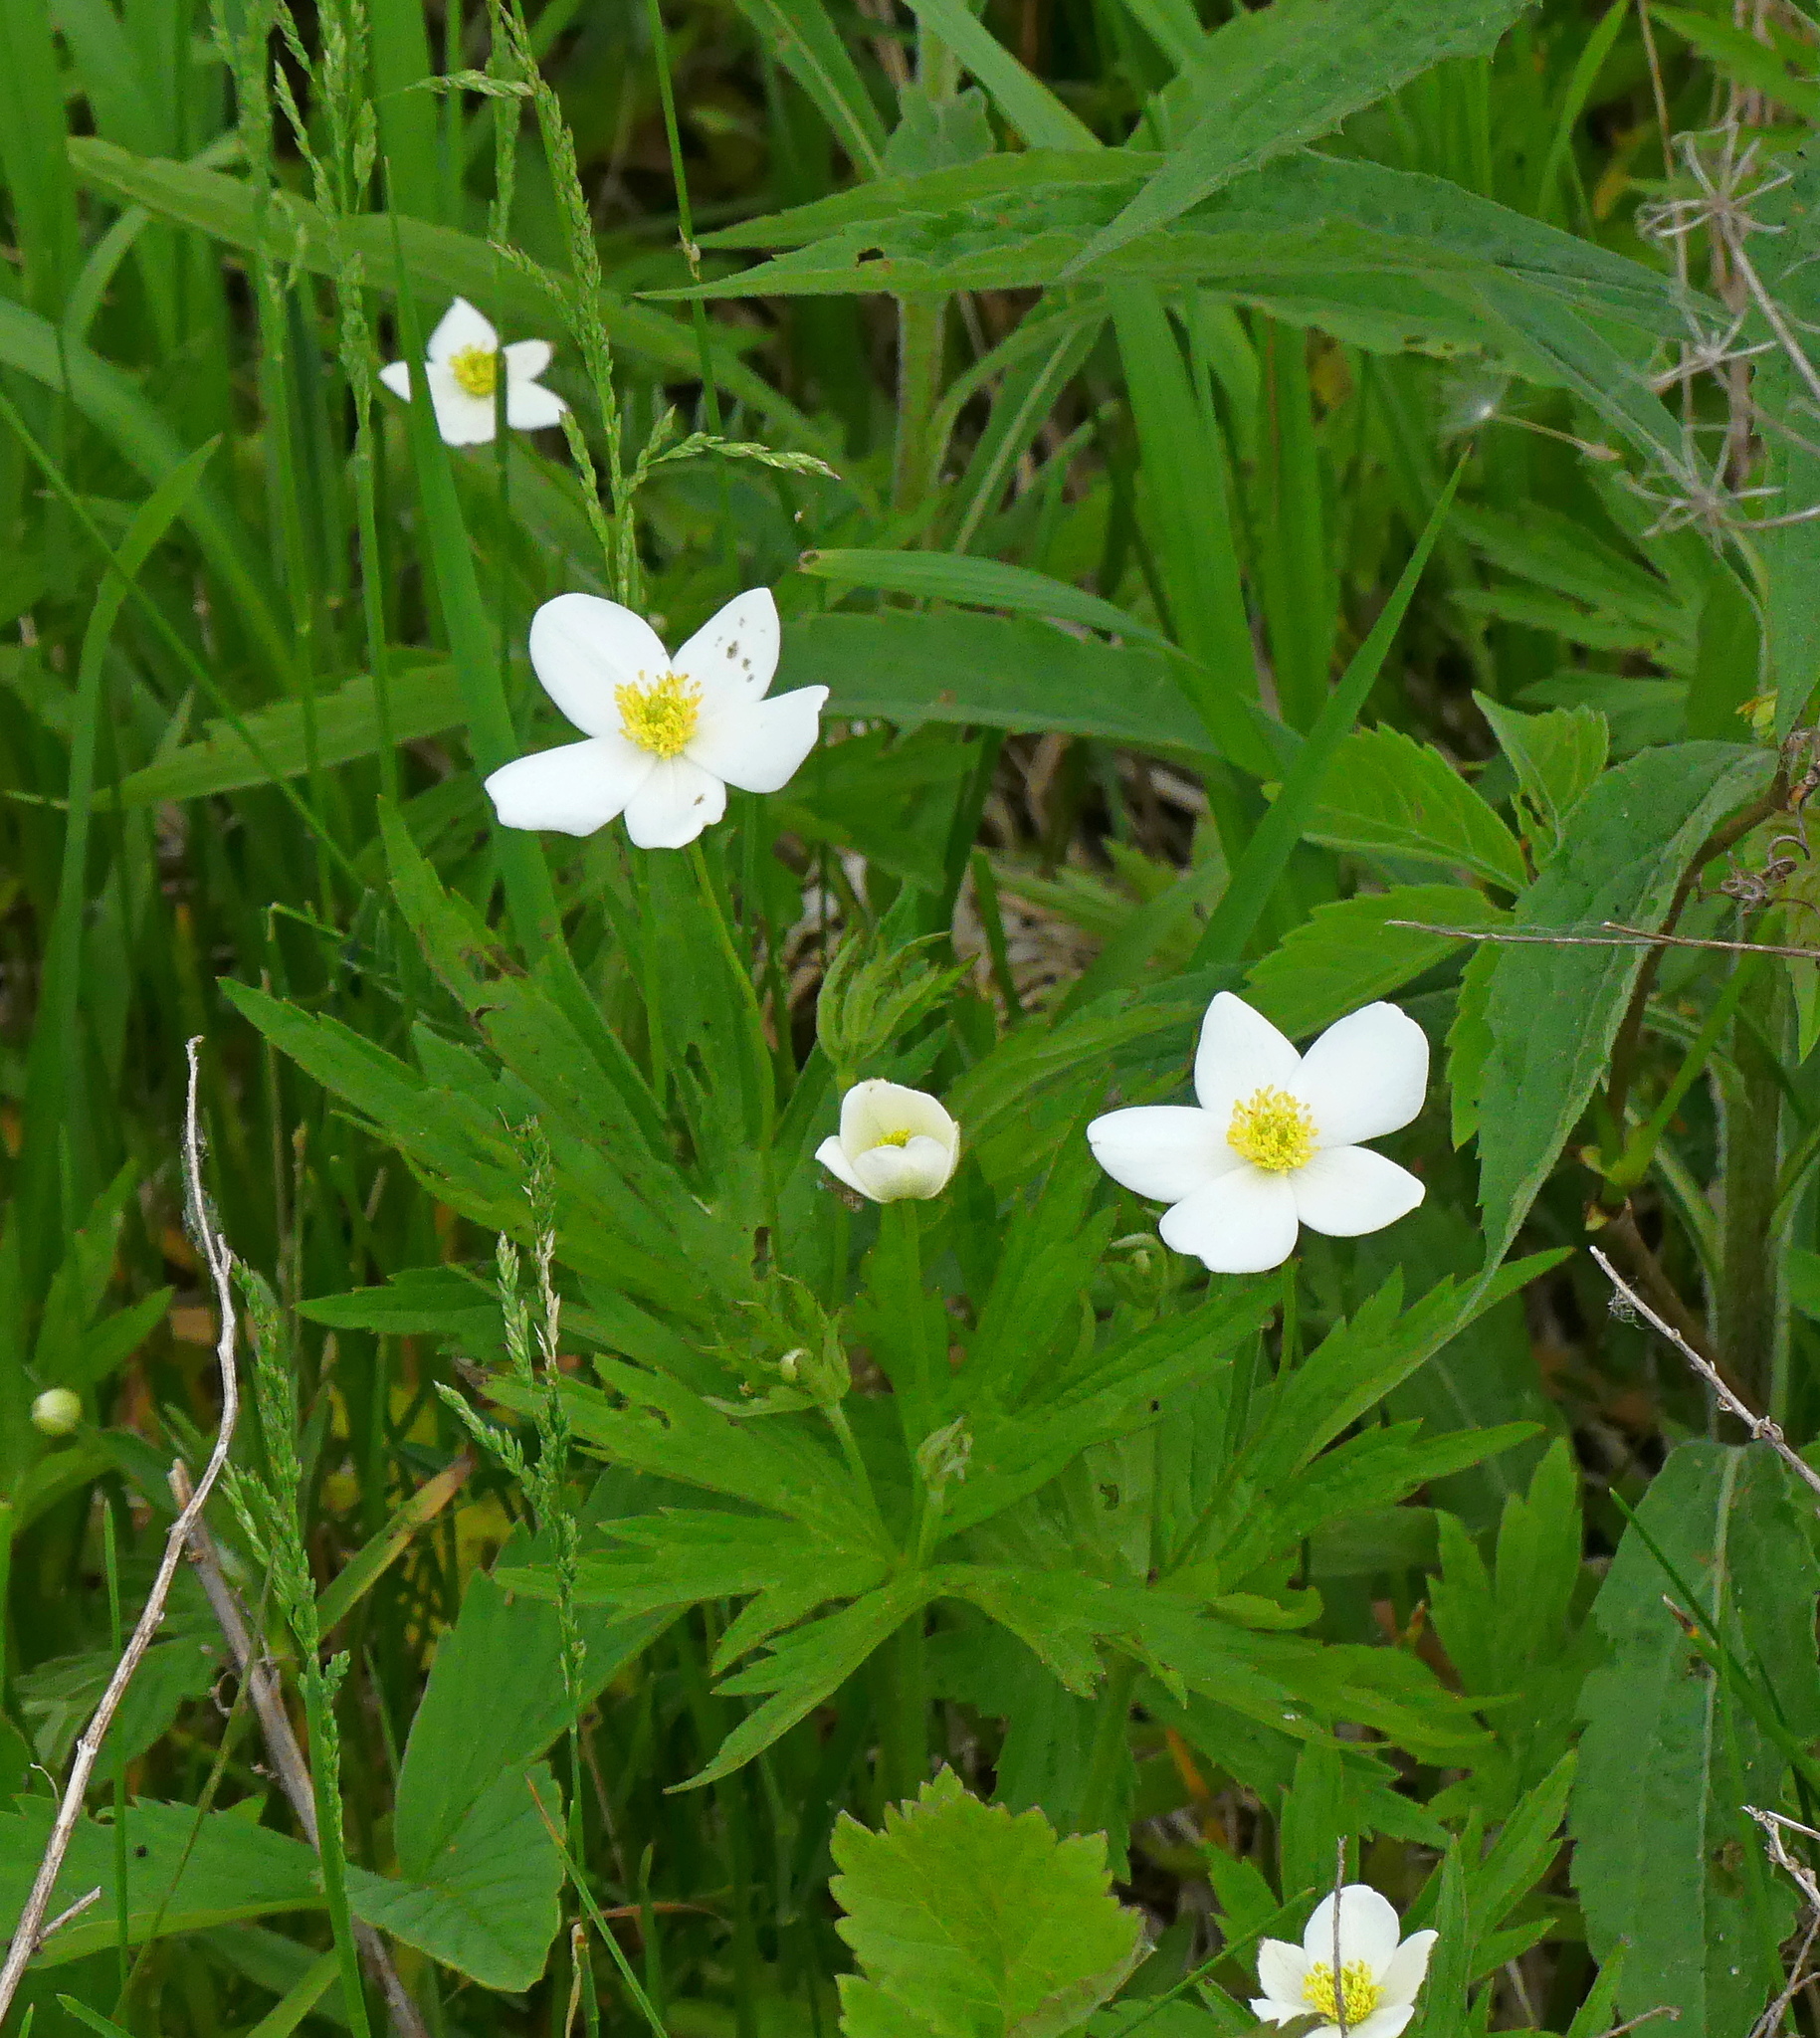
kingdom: Plantae
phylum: Tracheophyta
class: Magnoliopsida
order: Ranunculales
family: Ranunculaceae
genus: Anemonastrum
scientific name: Anemonastrum canadense
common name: Canada anemone
